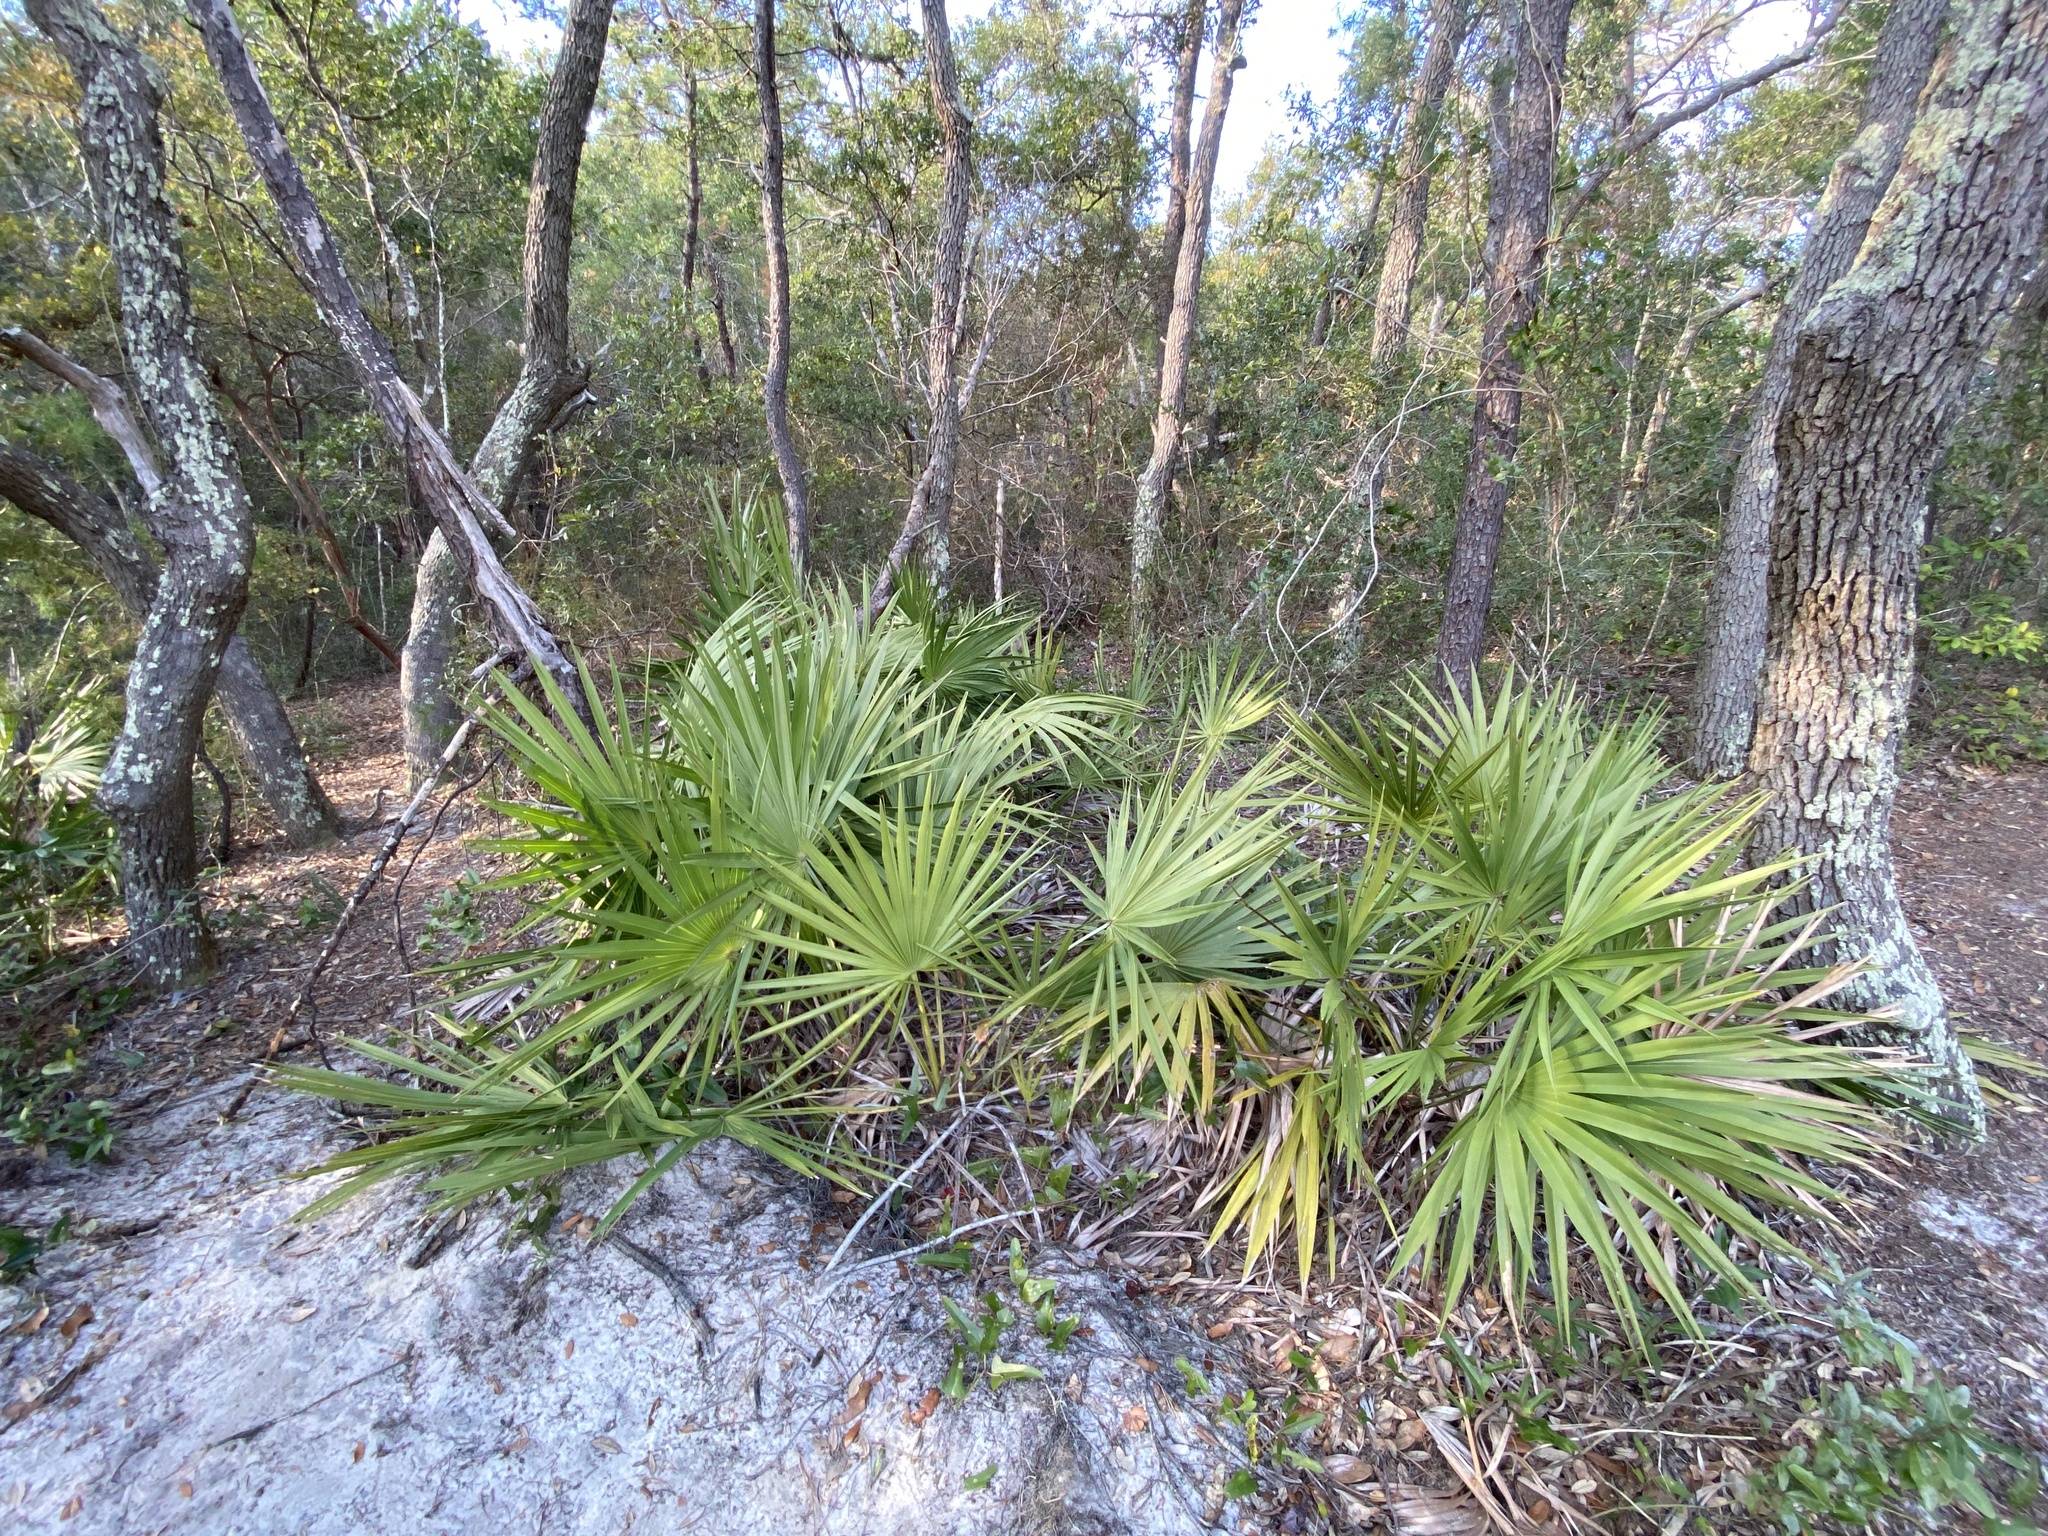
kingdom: Plantae
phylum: Tracheophyta
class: Liliopsida
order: Arecales
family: Arecaceae
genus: Serenoa
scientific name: Serenoa repens
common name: Saw-palmetto
